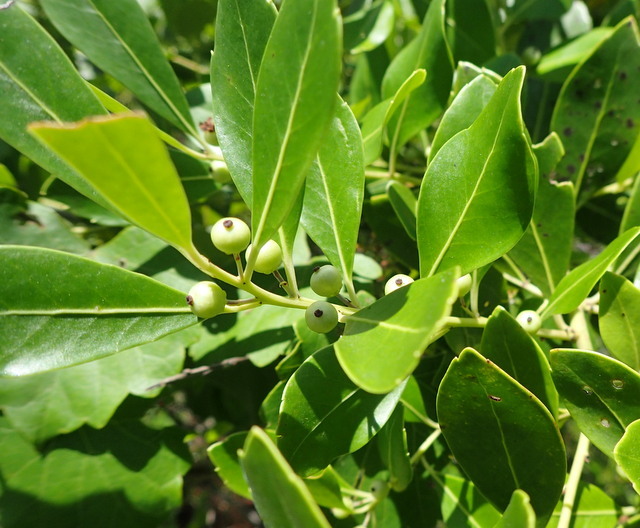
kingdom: Plantae
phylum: Tracheophyta
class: Magnoliopsida
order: Aquifoliales
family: Aquifoliaceae
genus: Ilex
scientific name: Ilex glabra
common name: Bitter gallberry
